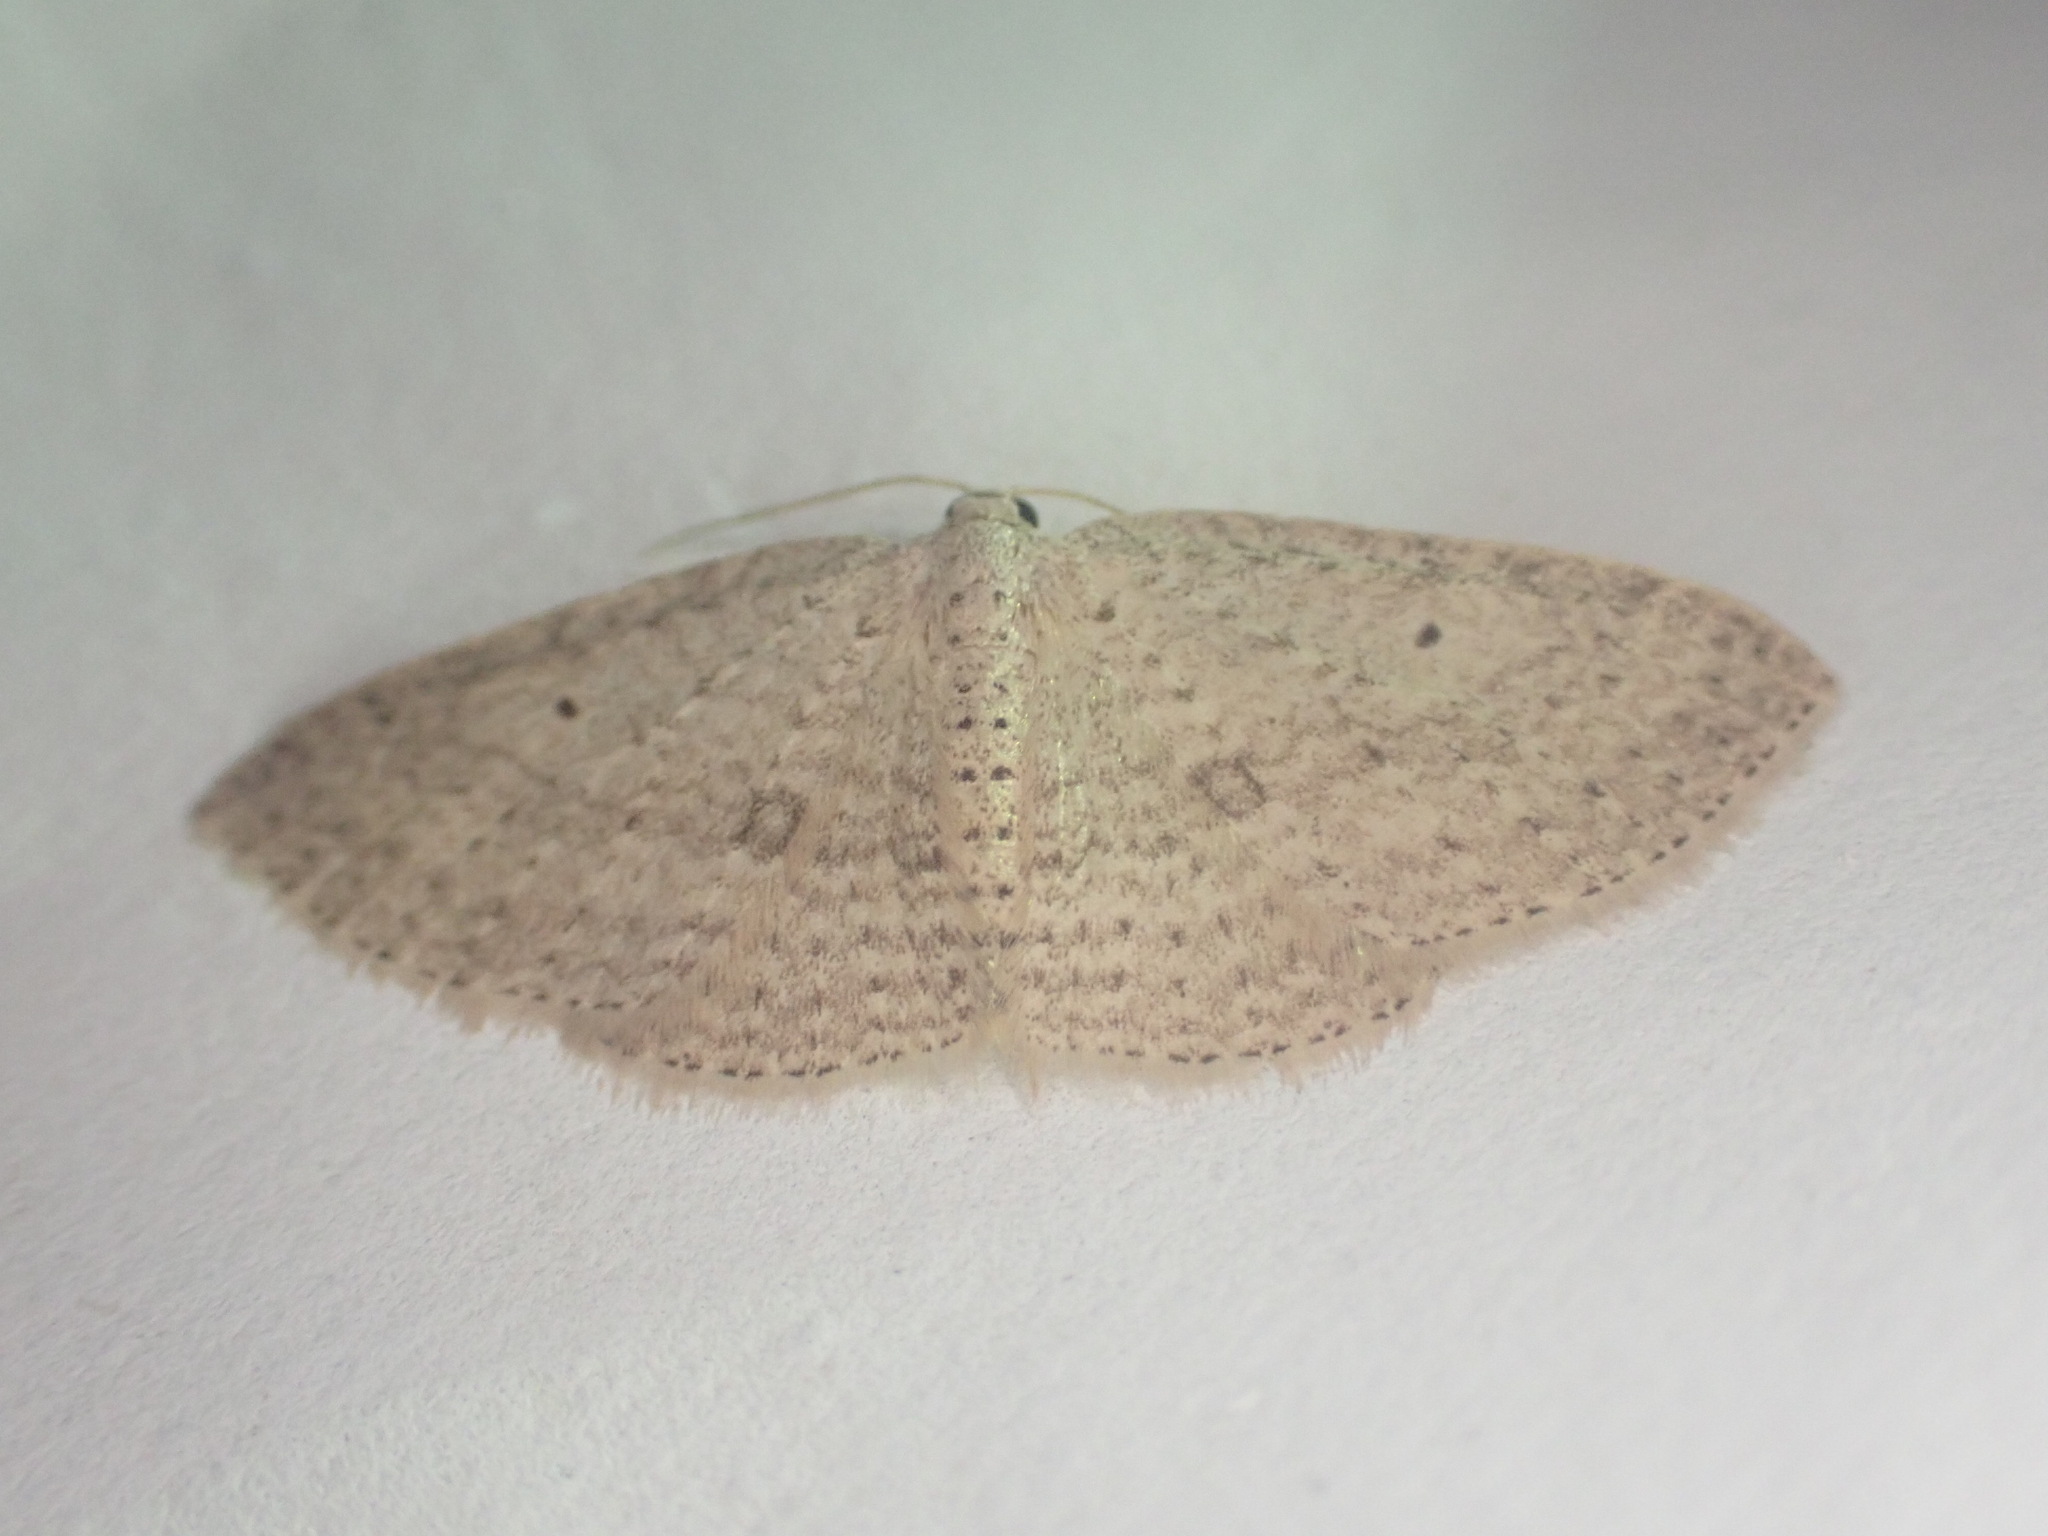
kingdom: Animalia
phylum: Arthropoda
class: Insecta
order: Lepidoptera
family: Geometridae
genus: Poecilasthena
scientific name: Poecilasthena schistaria
